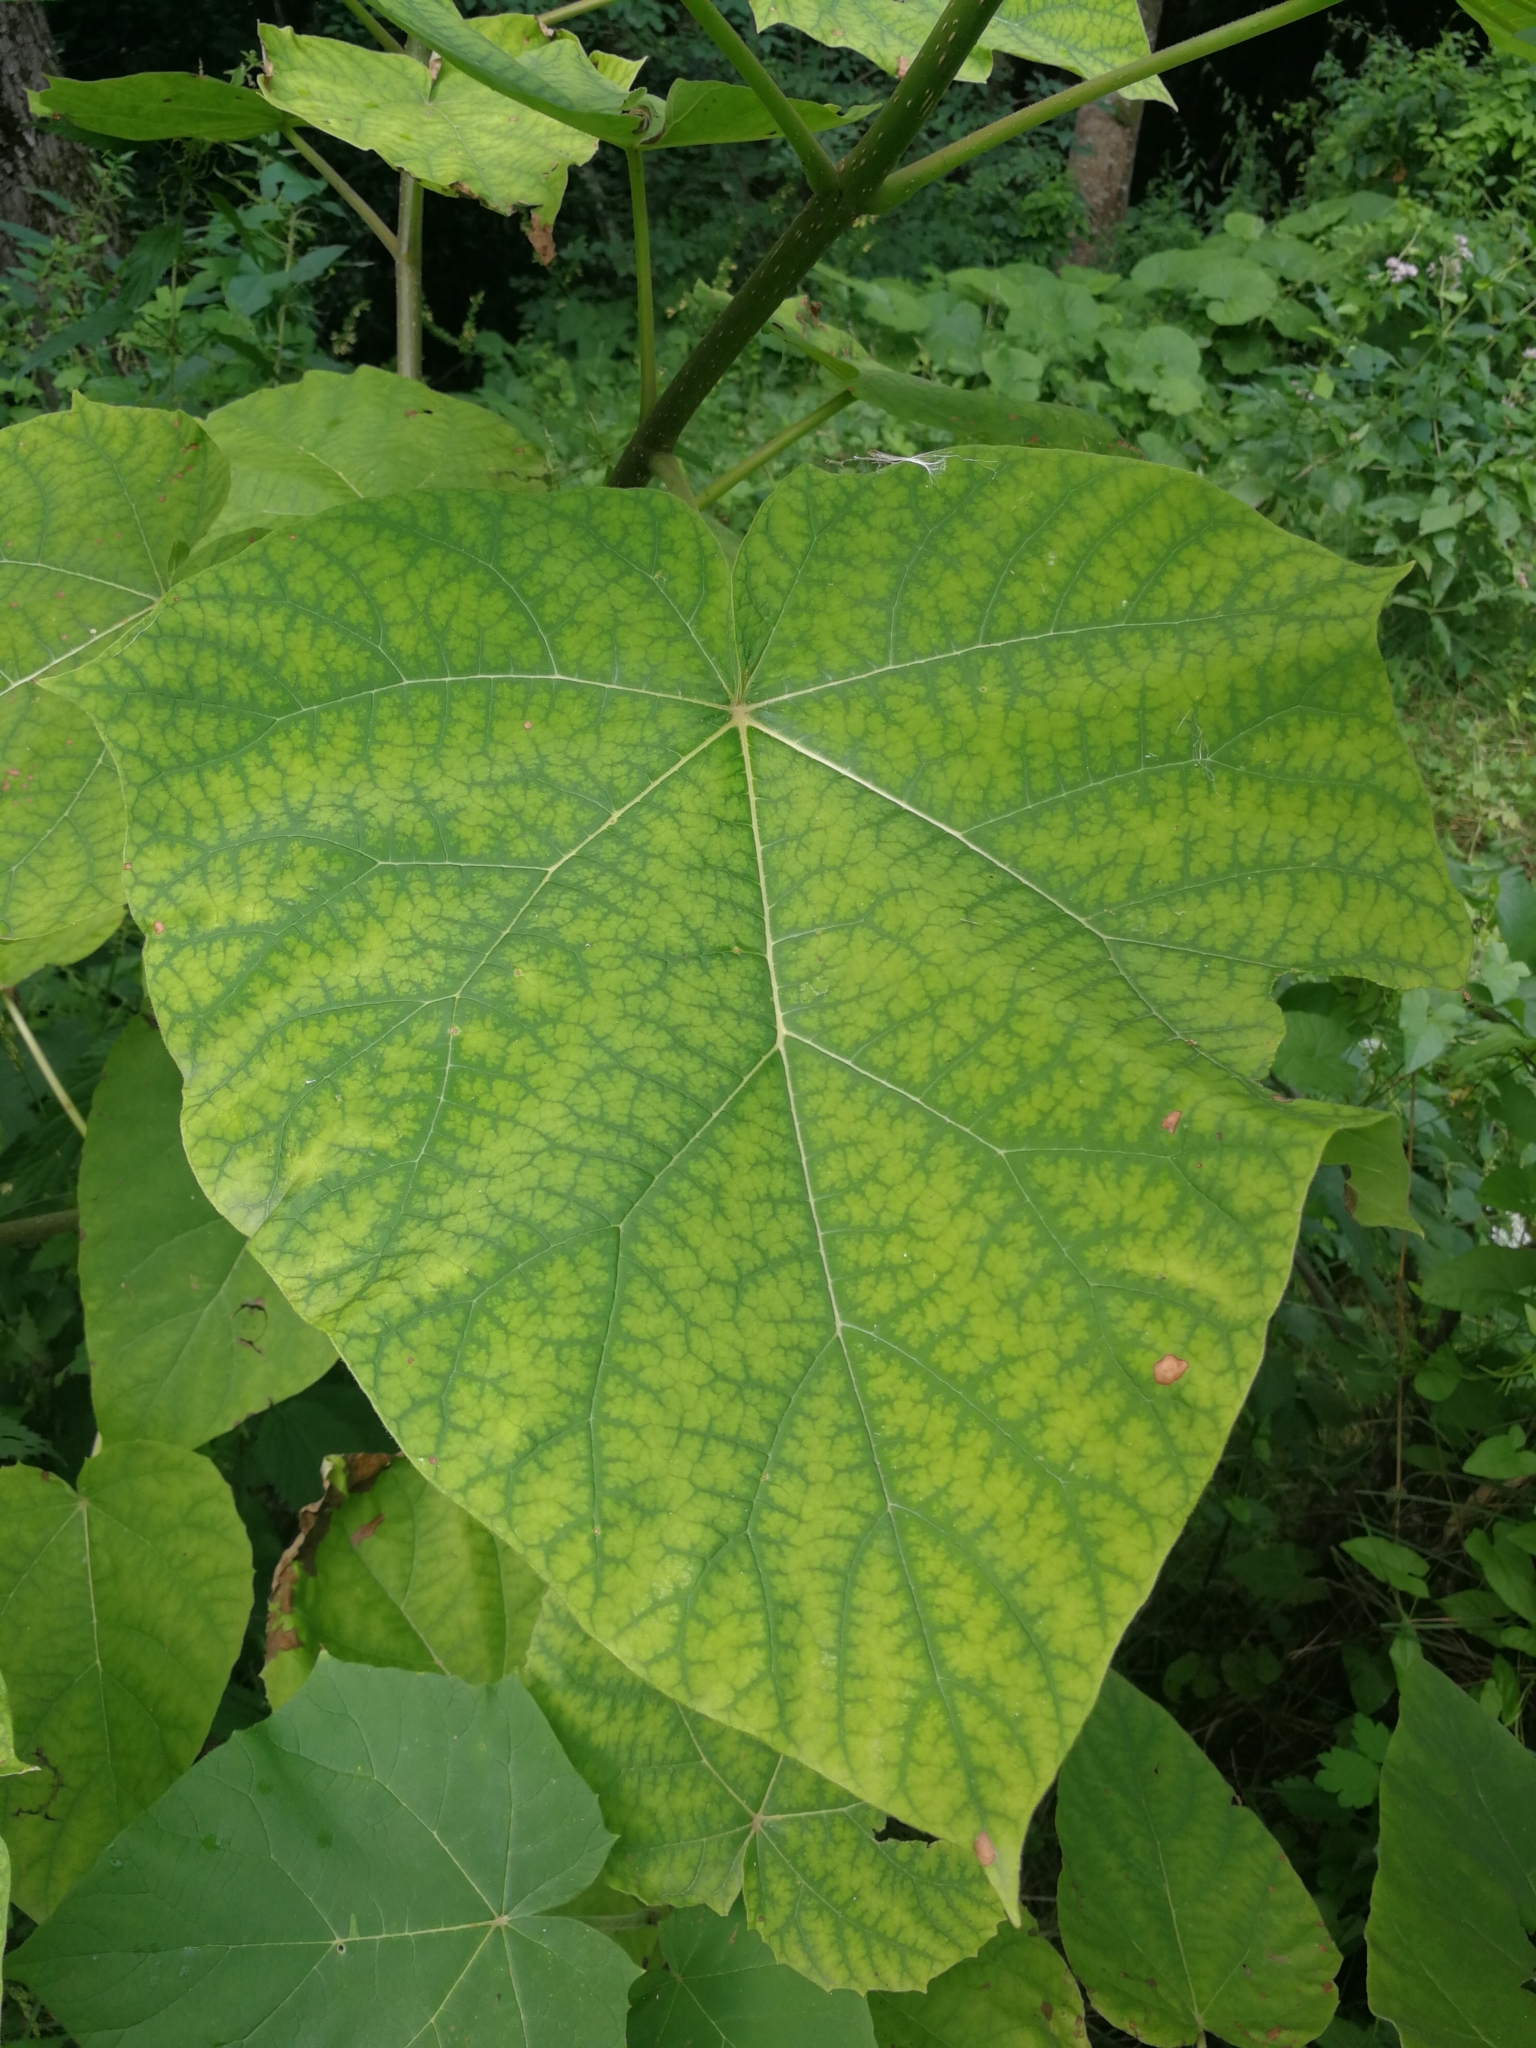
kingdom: Plantae
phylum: Tracheophyta
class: Magnoliopsida
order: Lamiales
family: Paulowniaceae
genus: Paulownia
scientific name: Paulownia tomentosa
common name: Foxglove-tree
